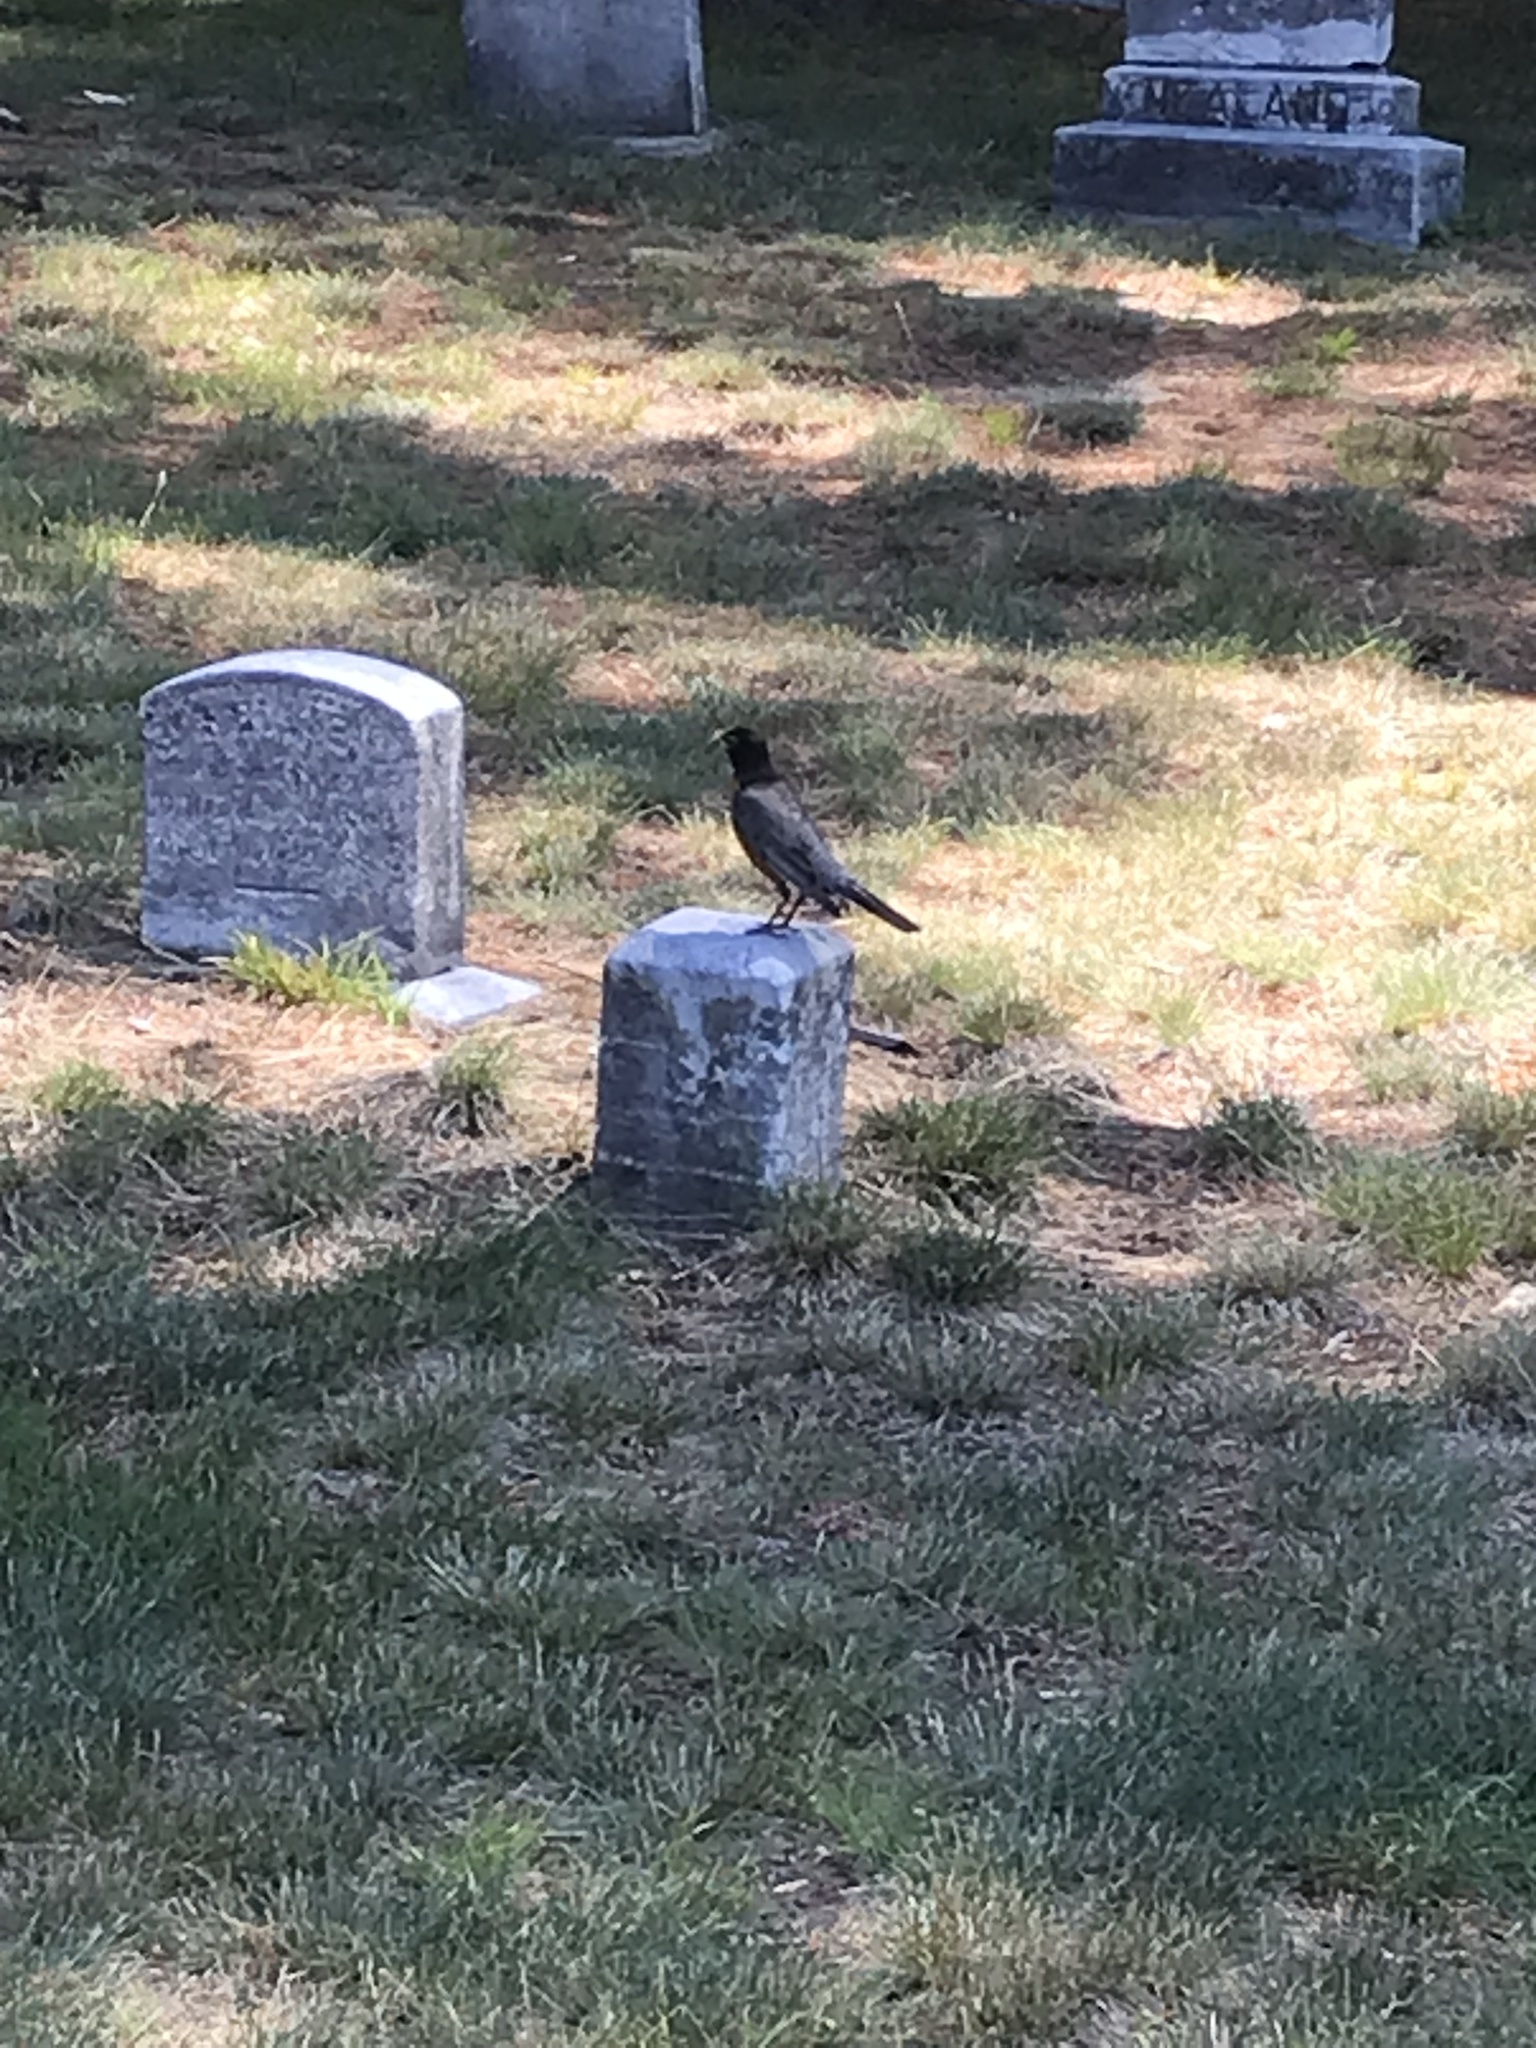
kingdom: Animalia
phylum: Chordata
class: Aves
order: Passeriformes
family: Turdidae
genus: Turdus
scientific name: Turdus migratorius
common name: American robin
